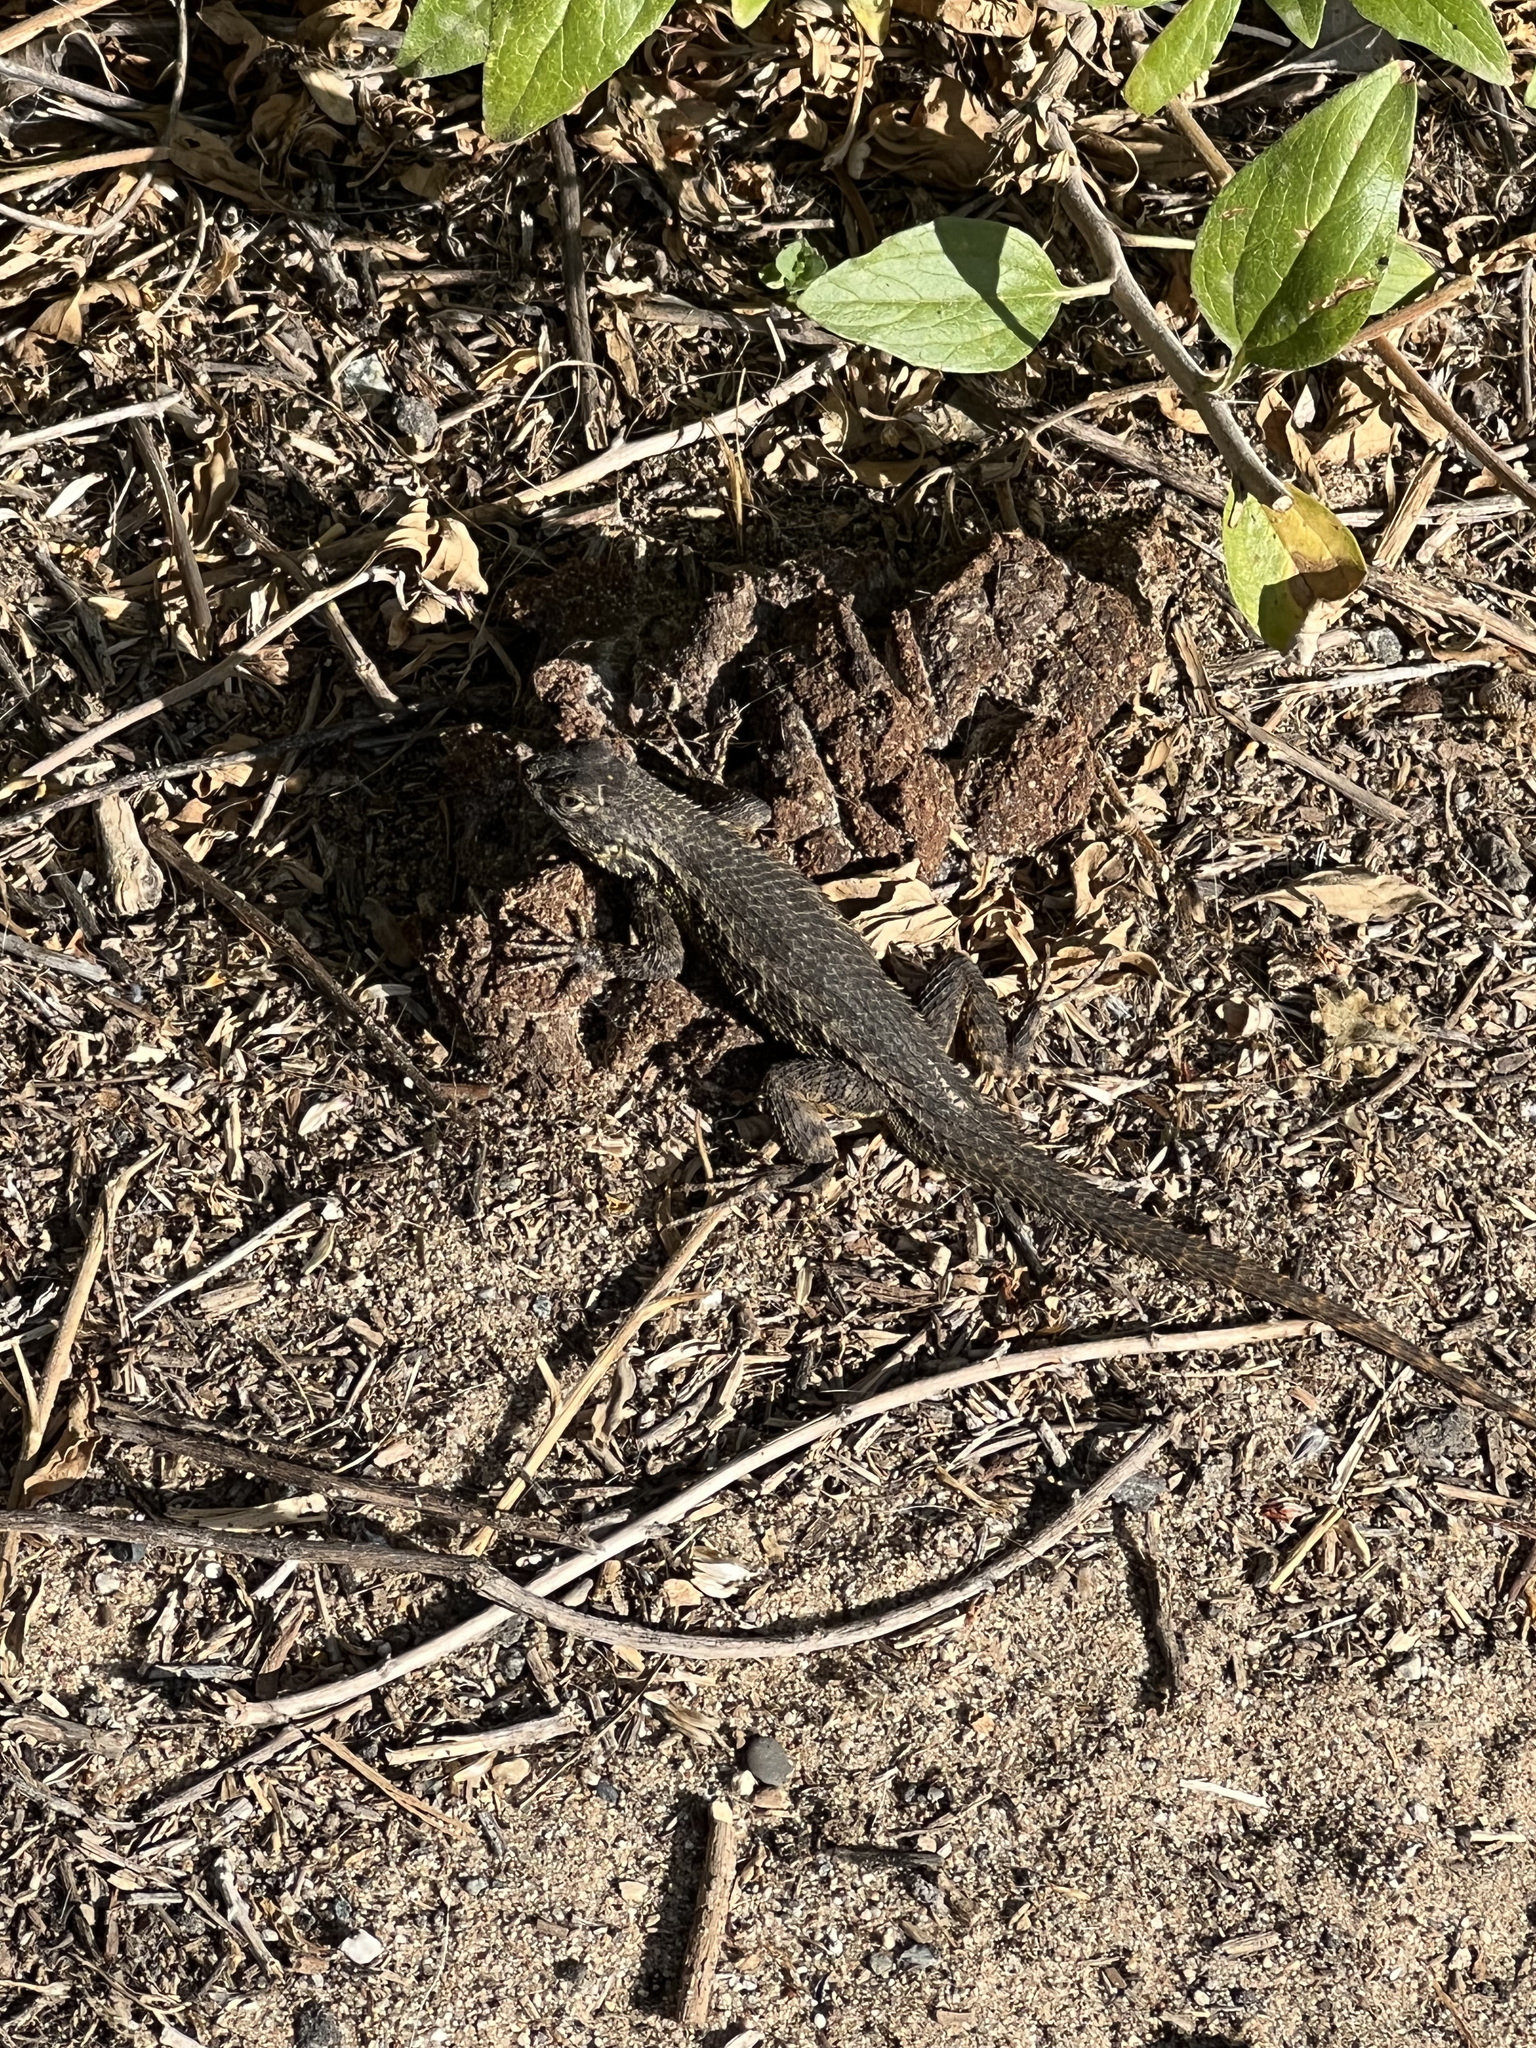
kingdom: Animalia
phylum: Chordata
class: Squamata
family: Phrynosomatidae
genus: Sceloporus
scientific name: Sceloporus occidentalis
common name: Western fence lizard
